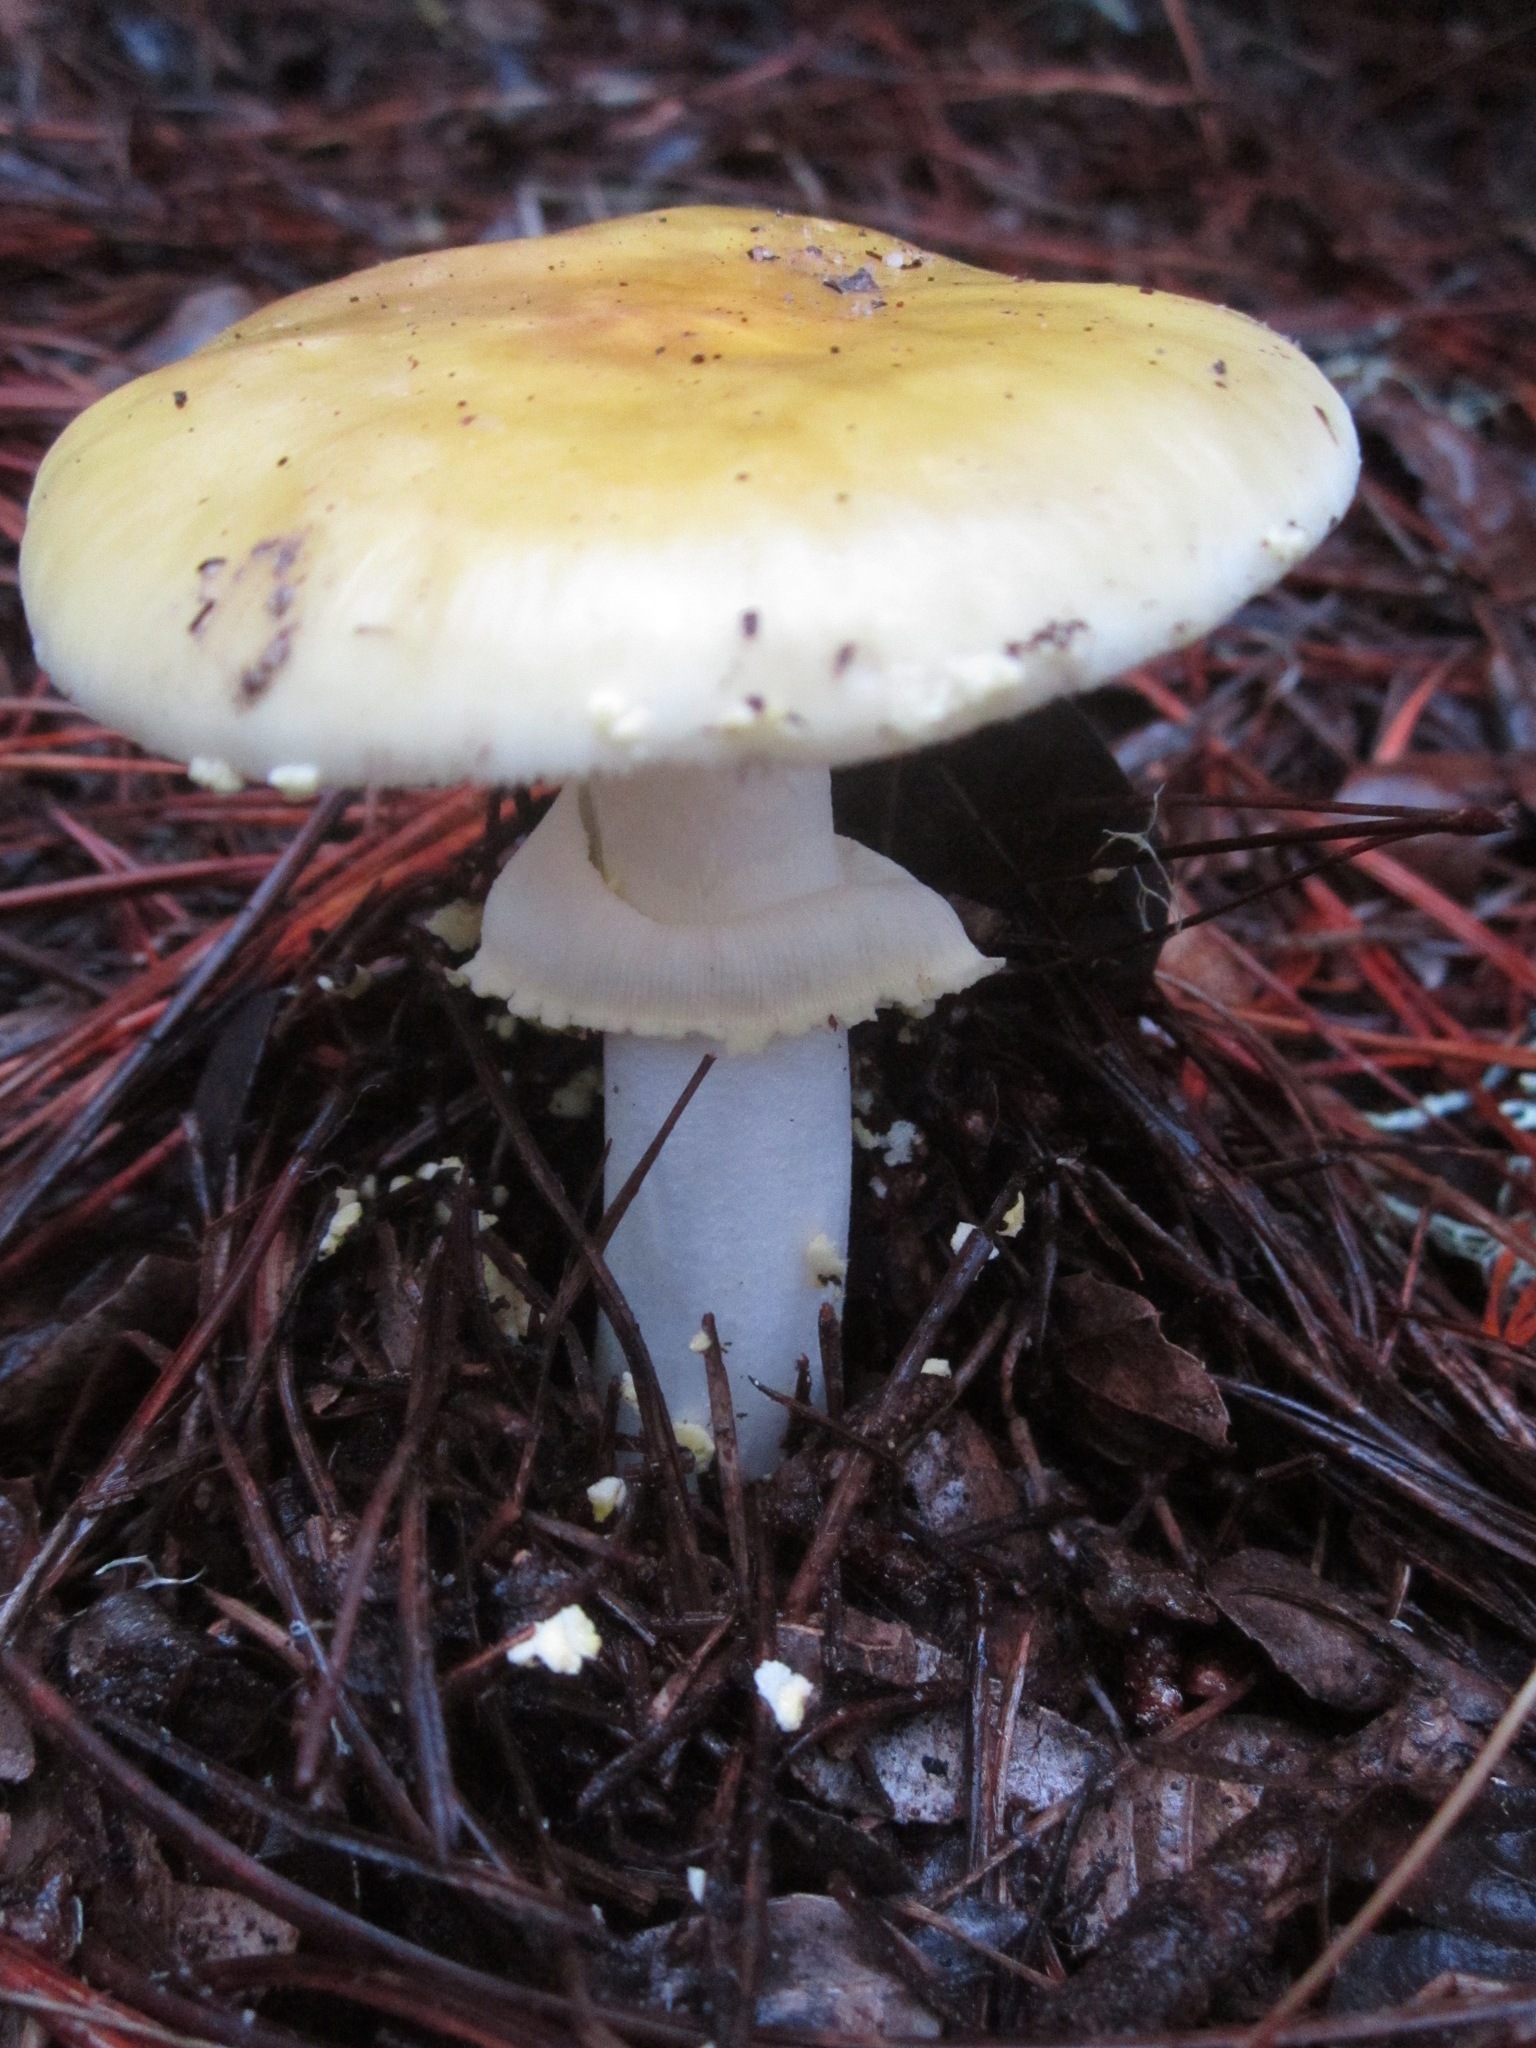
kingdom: Fungi
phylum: Basidiomycota
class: Agaricomycetes
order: Agaricales
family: Amanitaceae
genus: Amanita
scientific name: Amanita augusta
